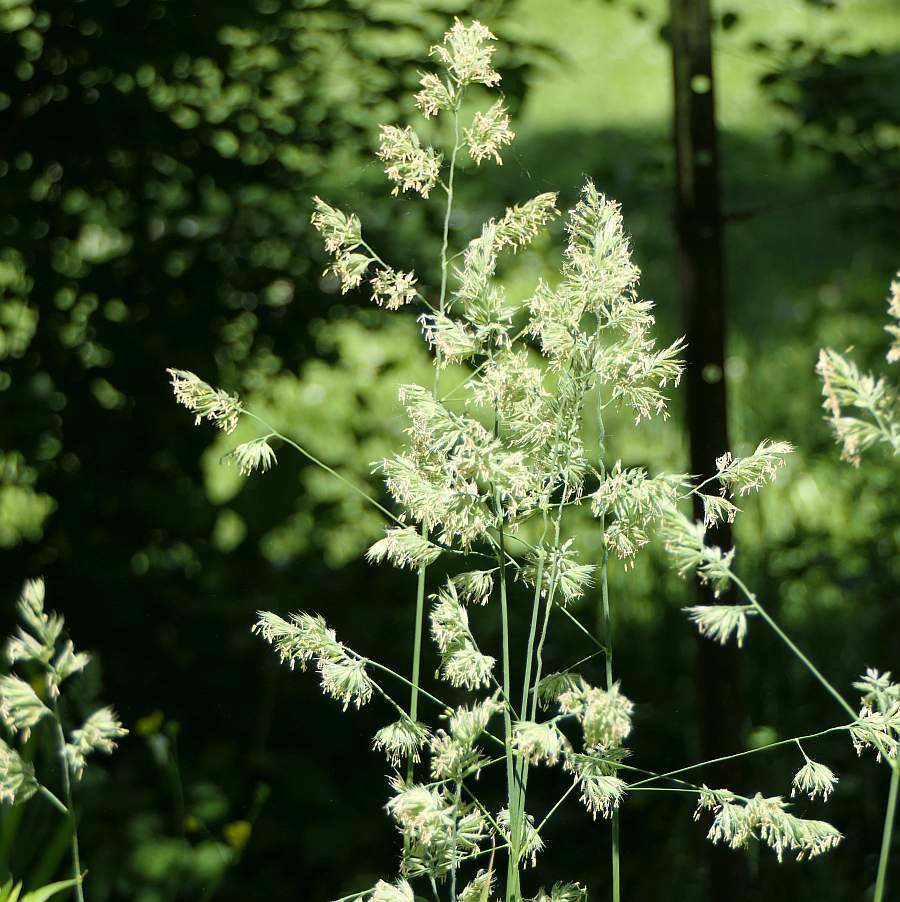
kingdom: Plantae
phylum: Tracheophyta
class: Liliopsida
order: Poales
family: Poaceae
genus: Dactylis
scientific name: Dactylis glomerata
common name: Orchardgrass
